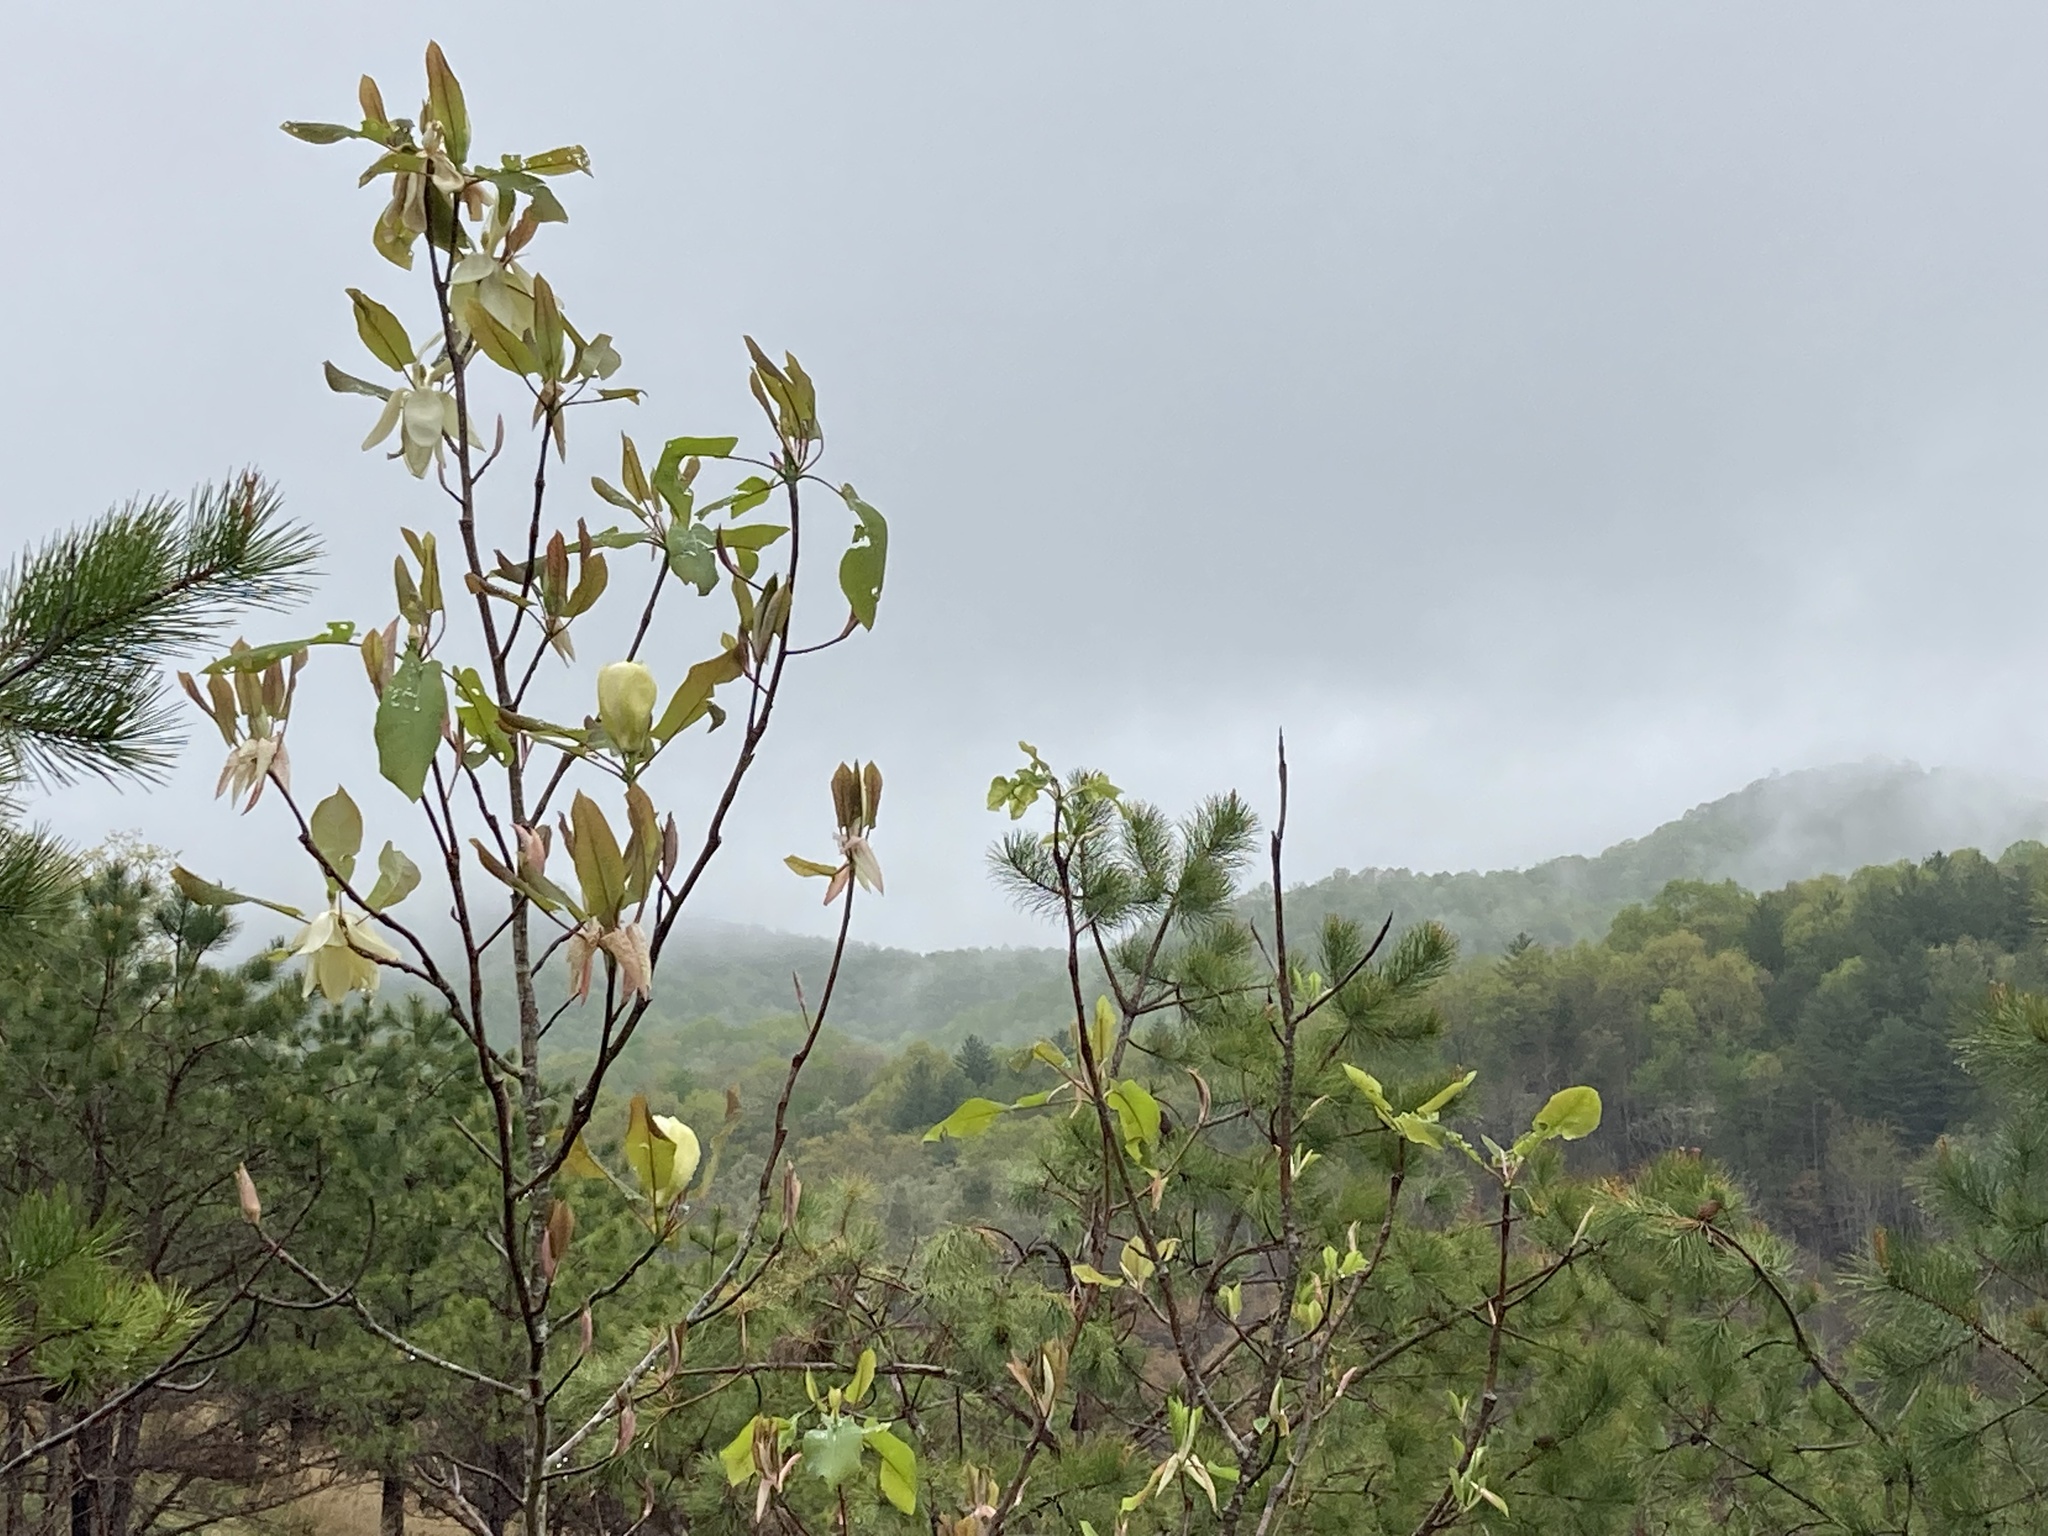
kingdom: Plantae
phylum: Tracheophyta
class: Magnoliopsida
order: Magnoliales
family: Magnoliaceae
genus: Magnolia
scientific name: Magnolia fraseri
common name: Fraser's magnolia
